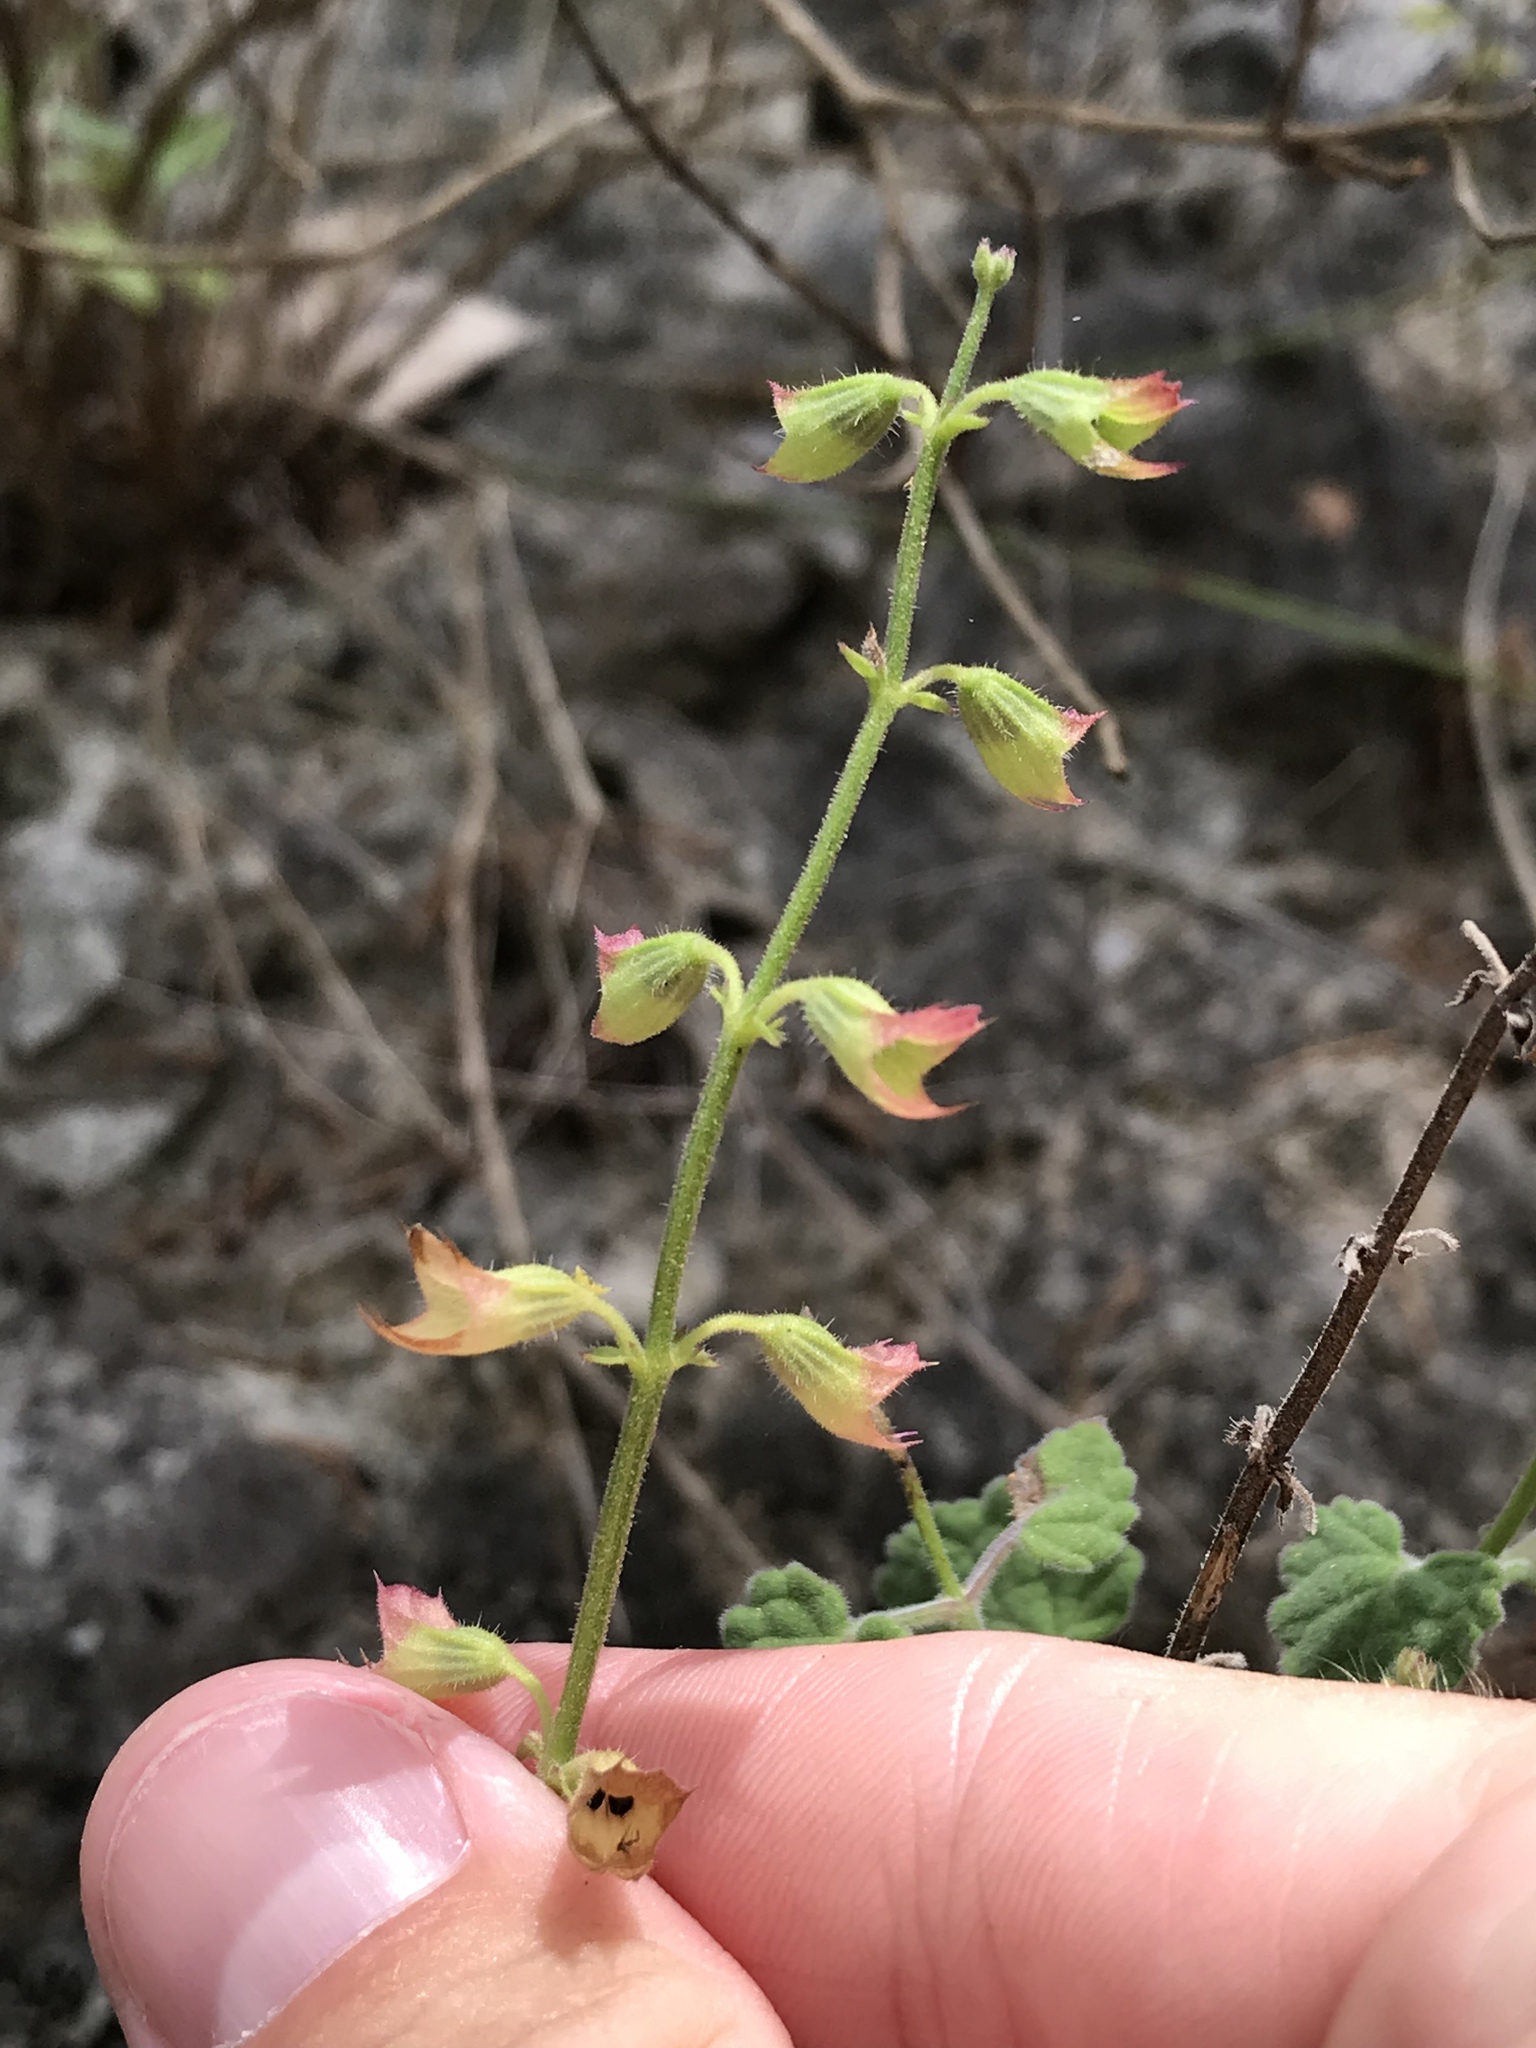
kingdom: Plantae
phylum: Tracheophyta
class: Magnoliopsida
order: Lamiales
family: Lamiaceae
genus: Salvia
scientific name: Salvia roemeriana
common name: Cedar sage
